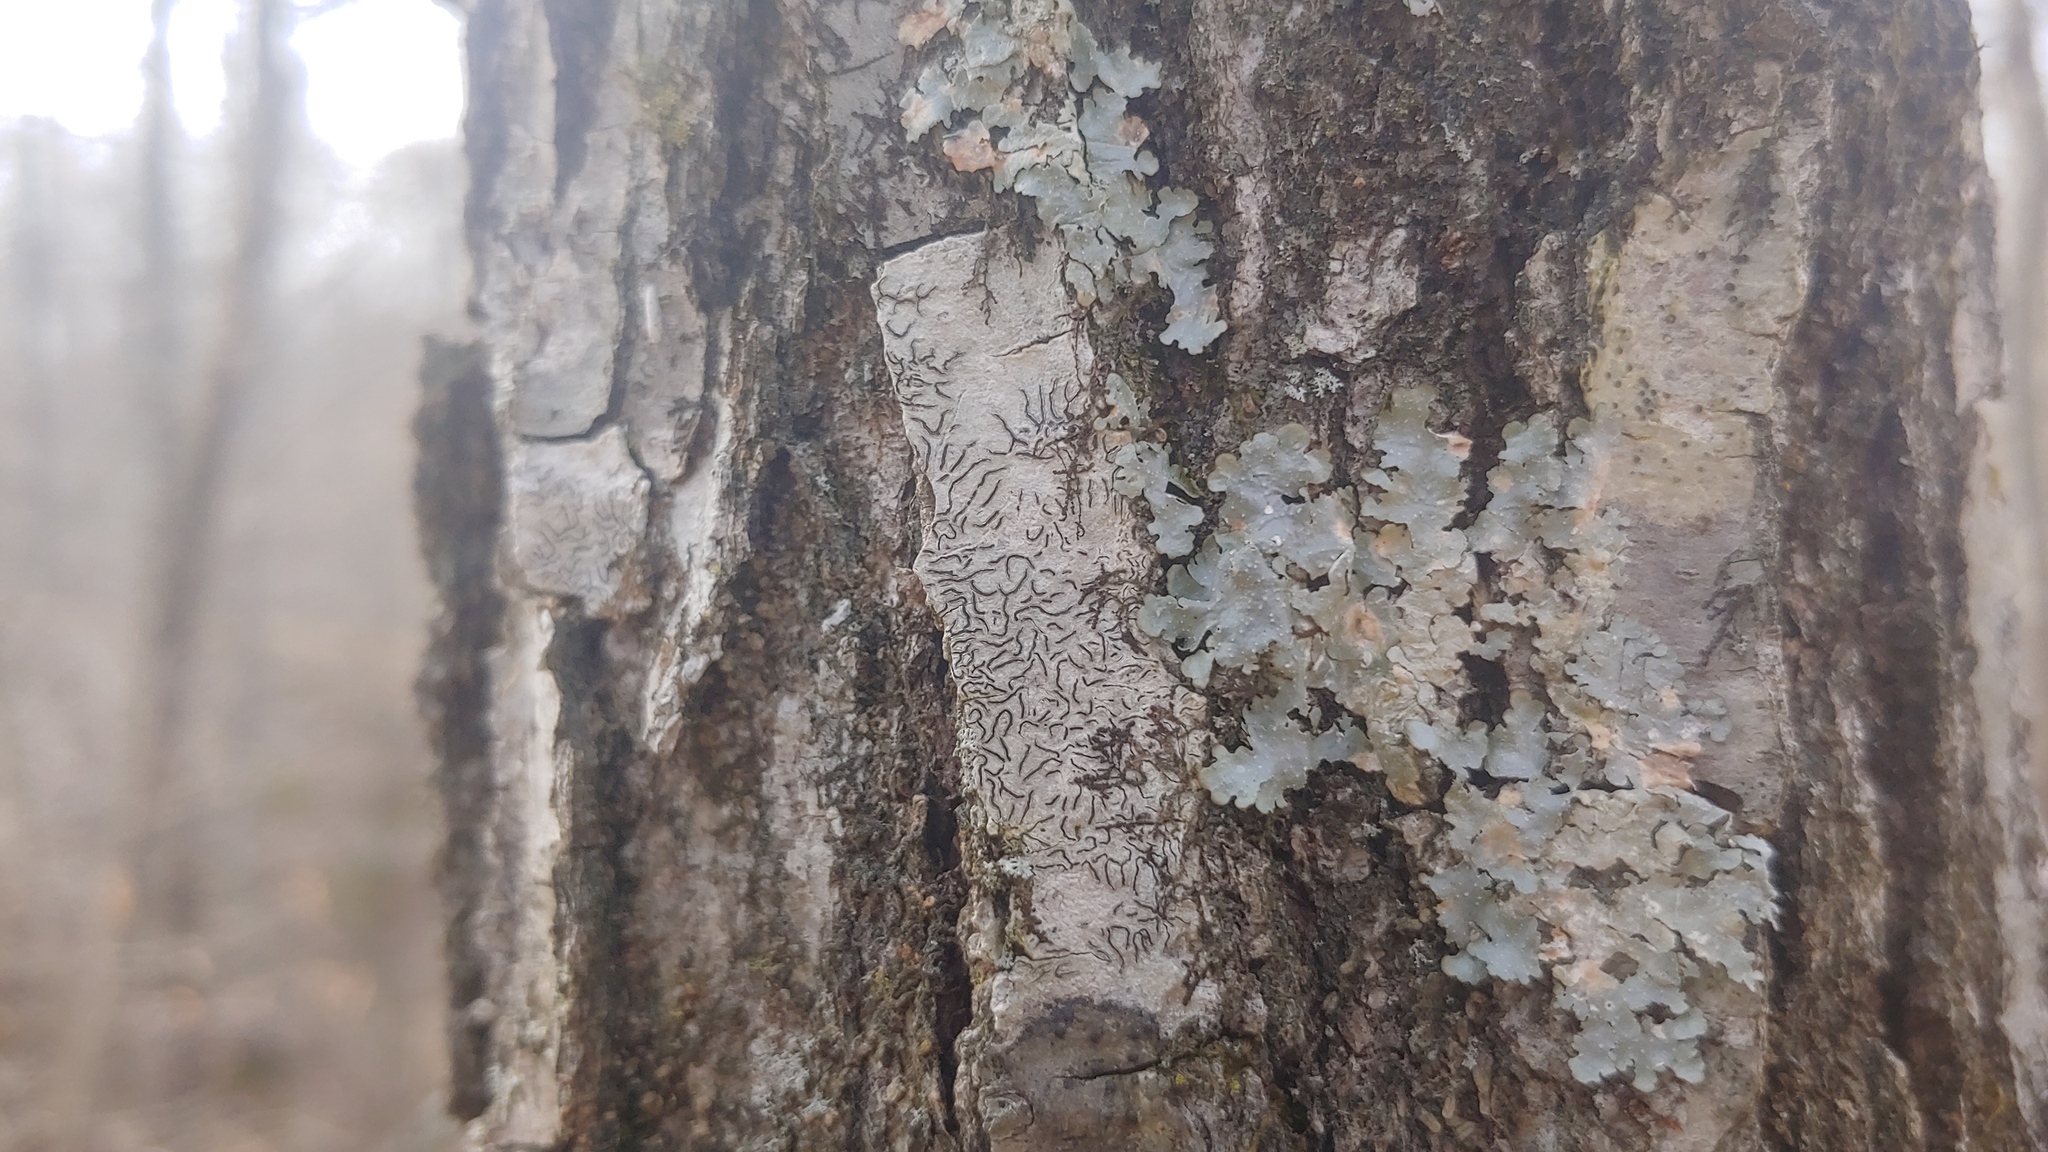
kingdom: Fungi
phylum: Ascomycota
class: Lecanoromycetes
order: Ostropales
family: Graphidaceae
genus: Graphis
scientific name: Graphis scripta
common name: Script lichen
